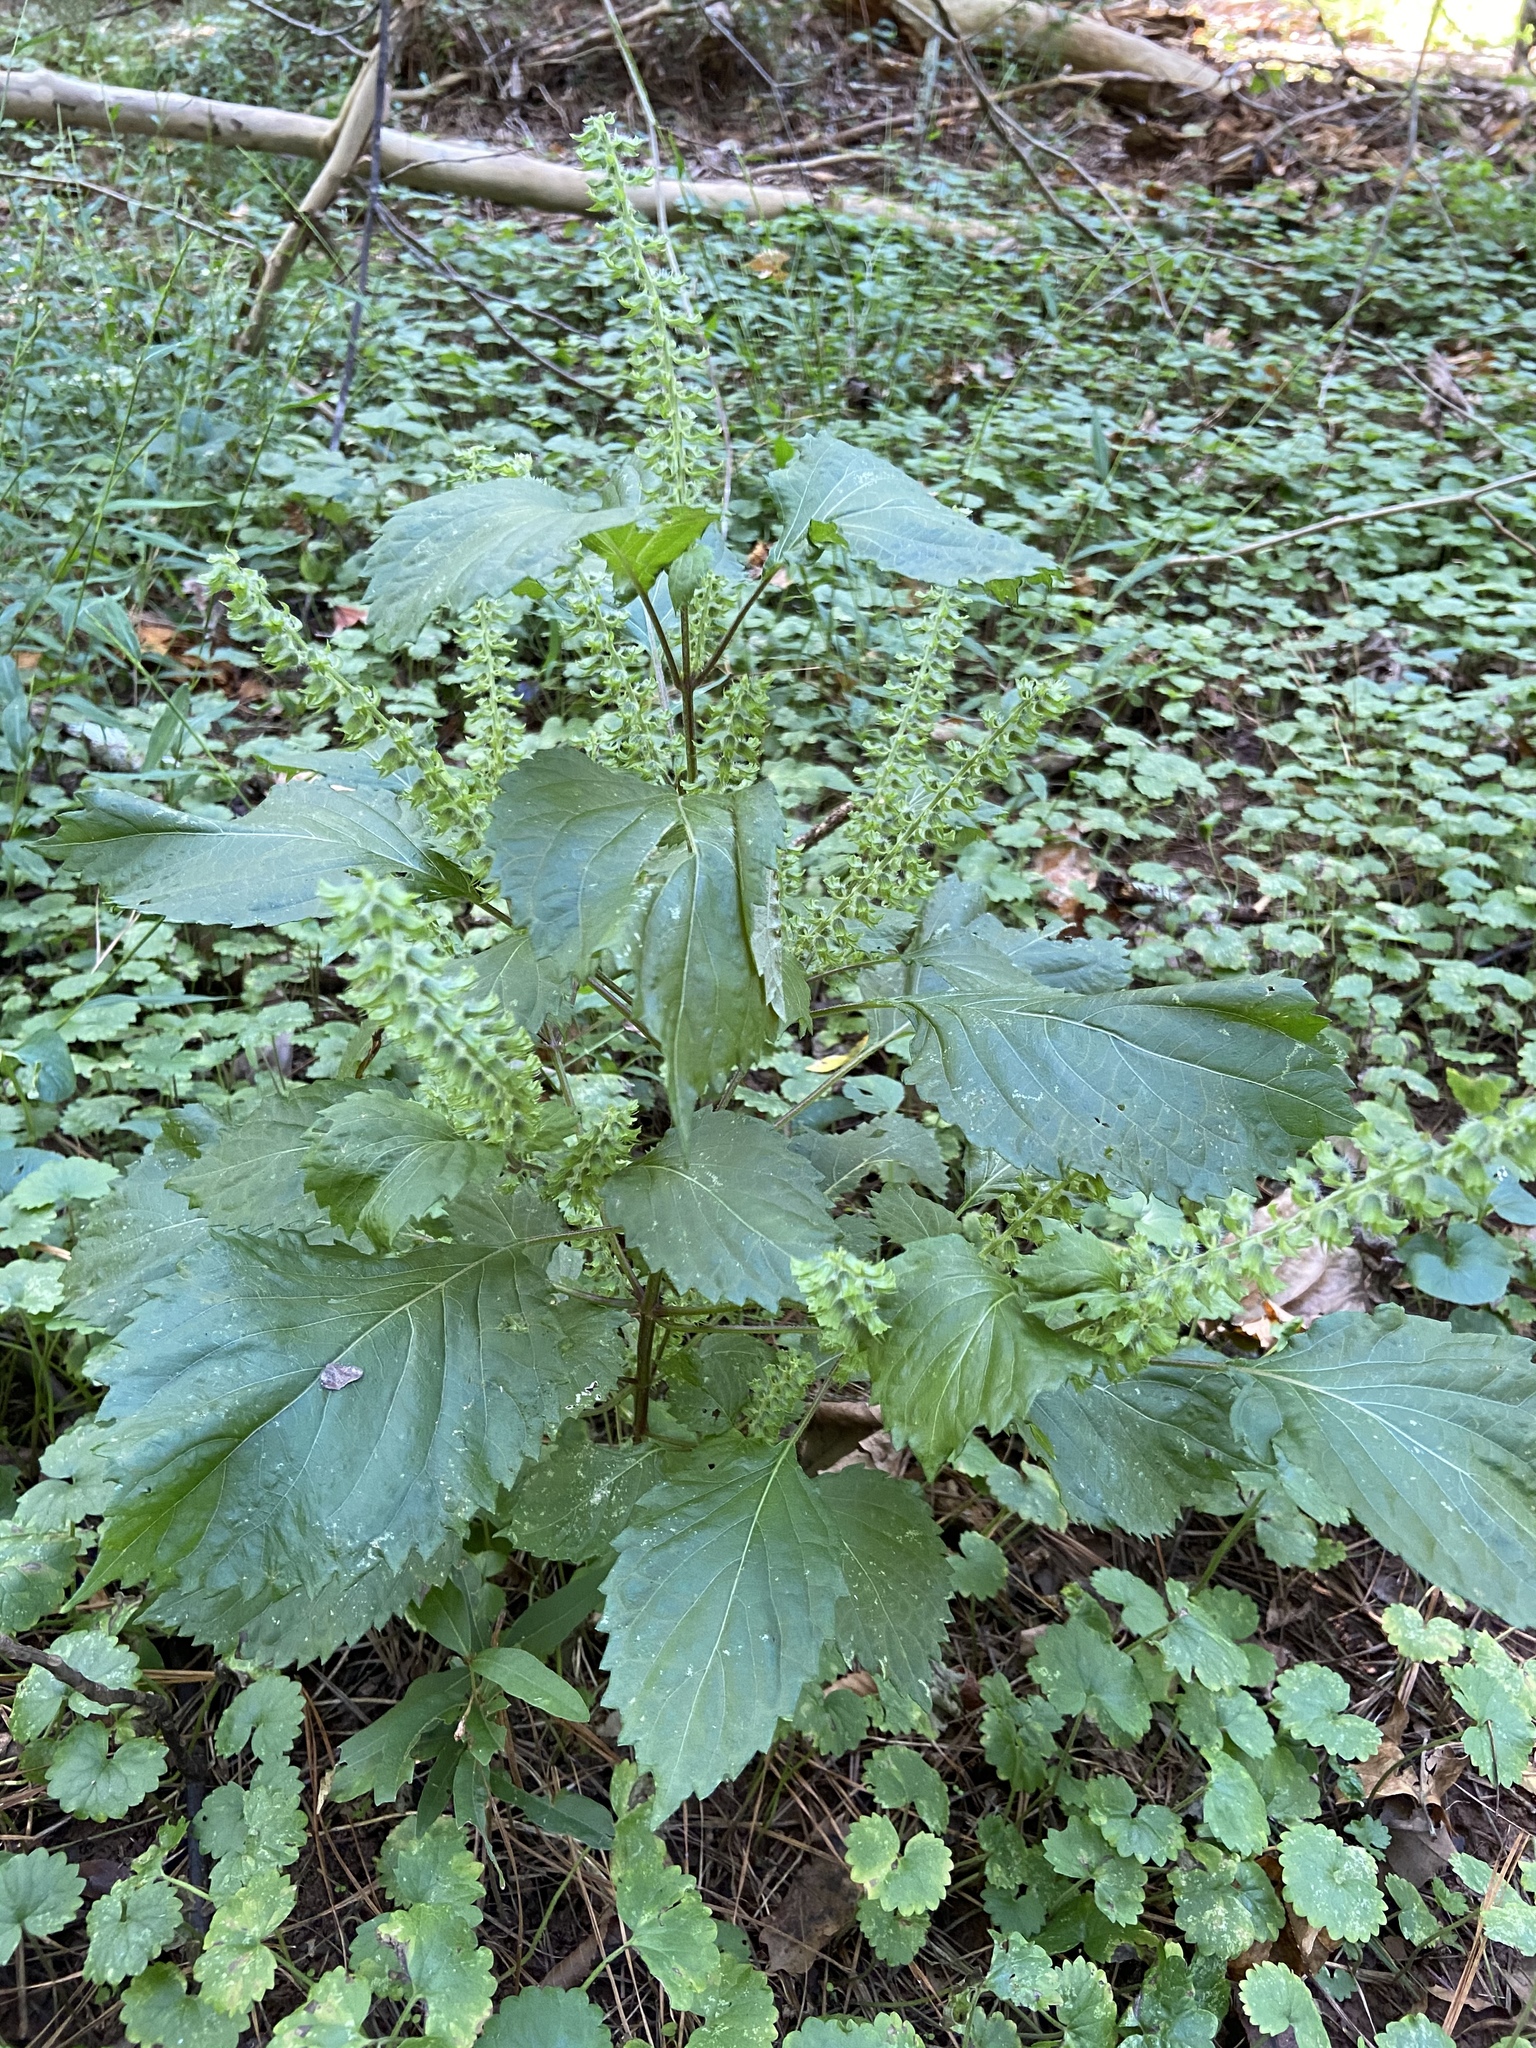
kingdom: Plantae
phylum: Tracheophyta
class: Magnoliopsida
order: Lamiales
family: Lamiaceae
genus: Perilla
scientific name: Perilla frutescens
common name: Perilla
